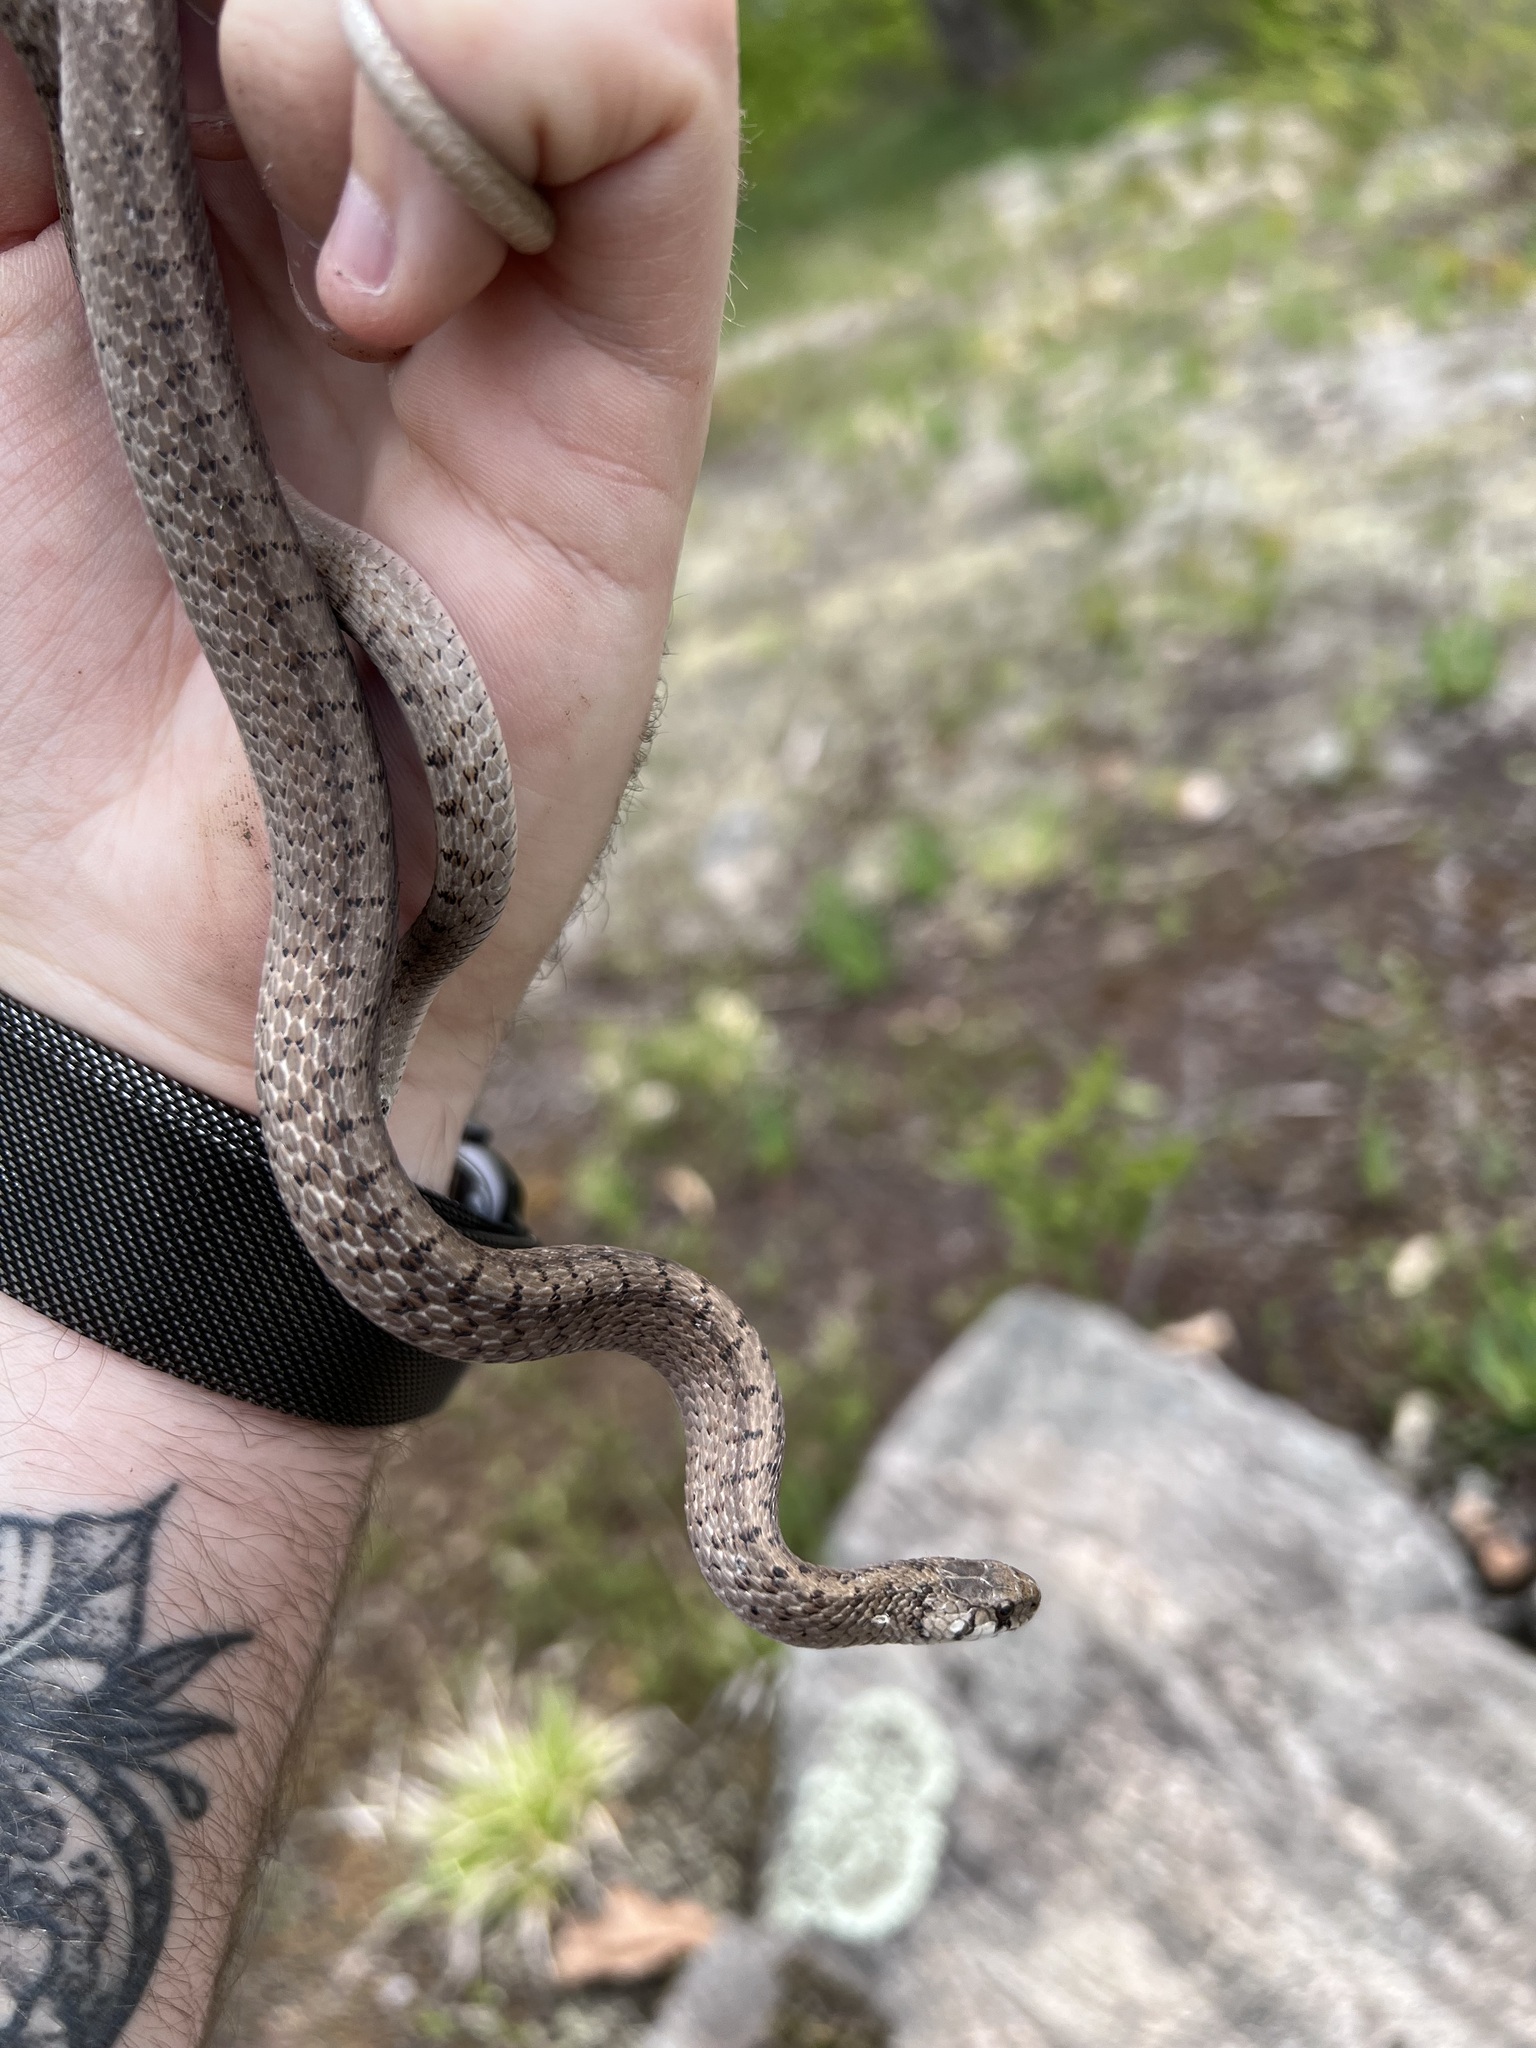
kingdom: Animalia
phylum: Chordata
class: Squamata
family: Colubridae
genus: Storeria
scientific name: Storeria dekayi
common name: (dekay’s) brown snake
